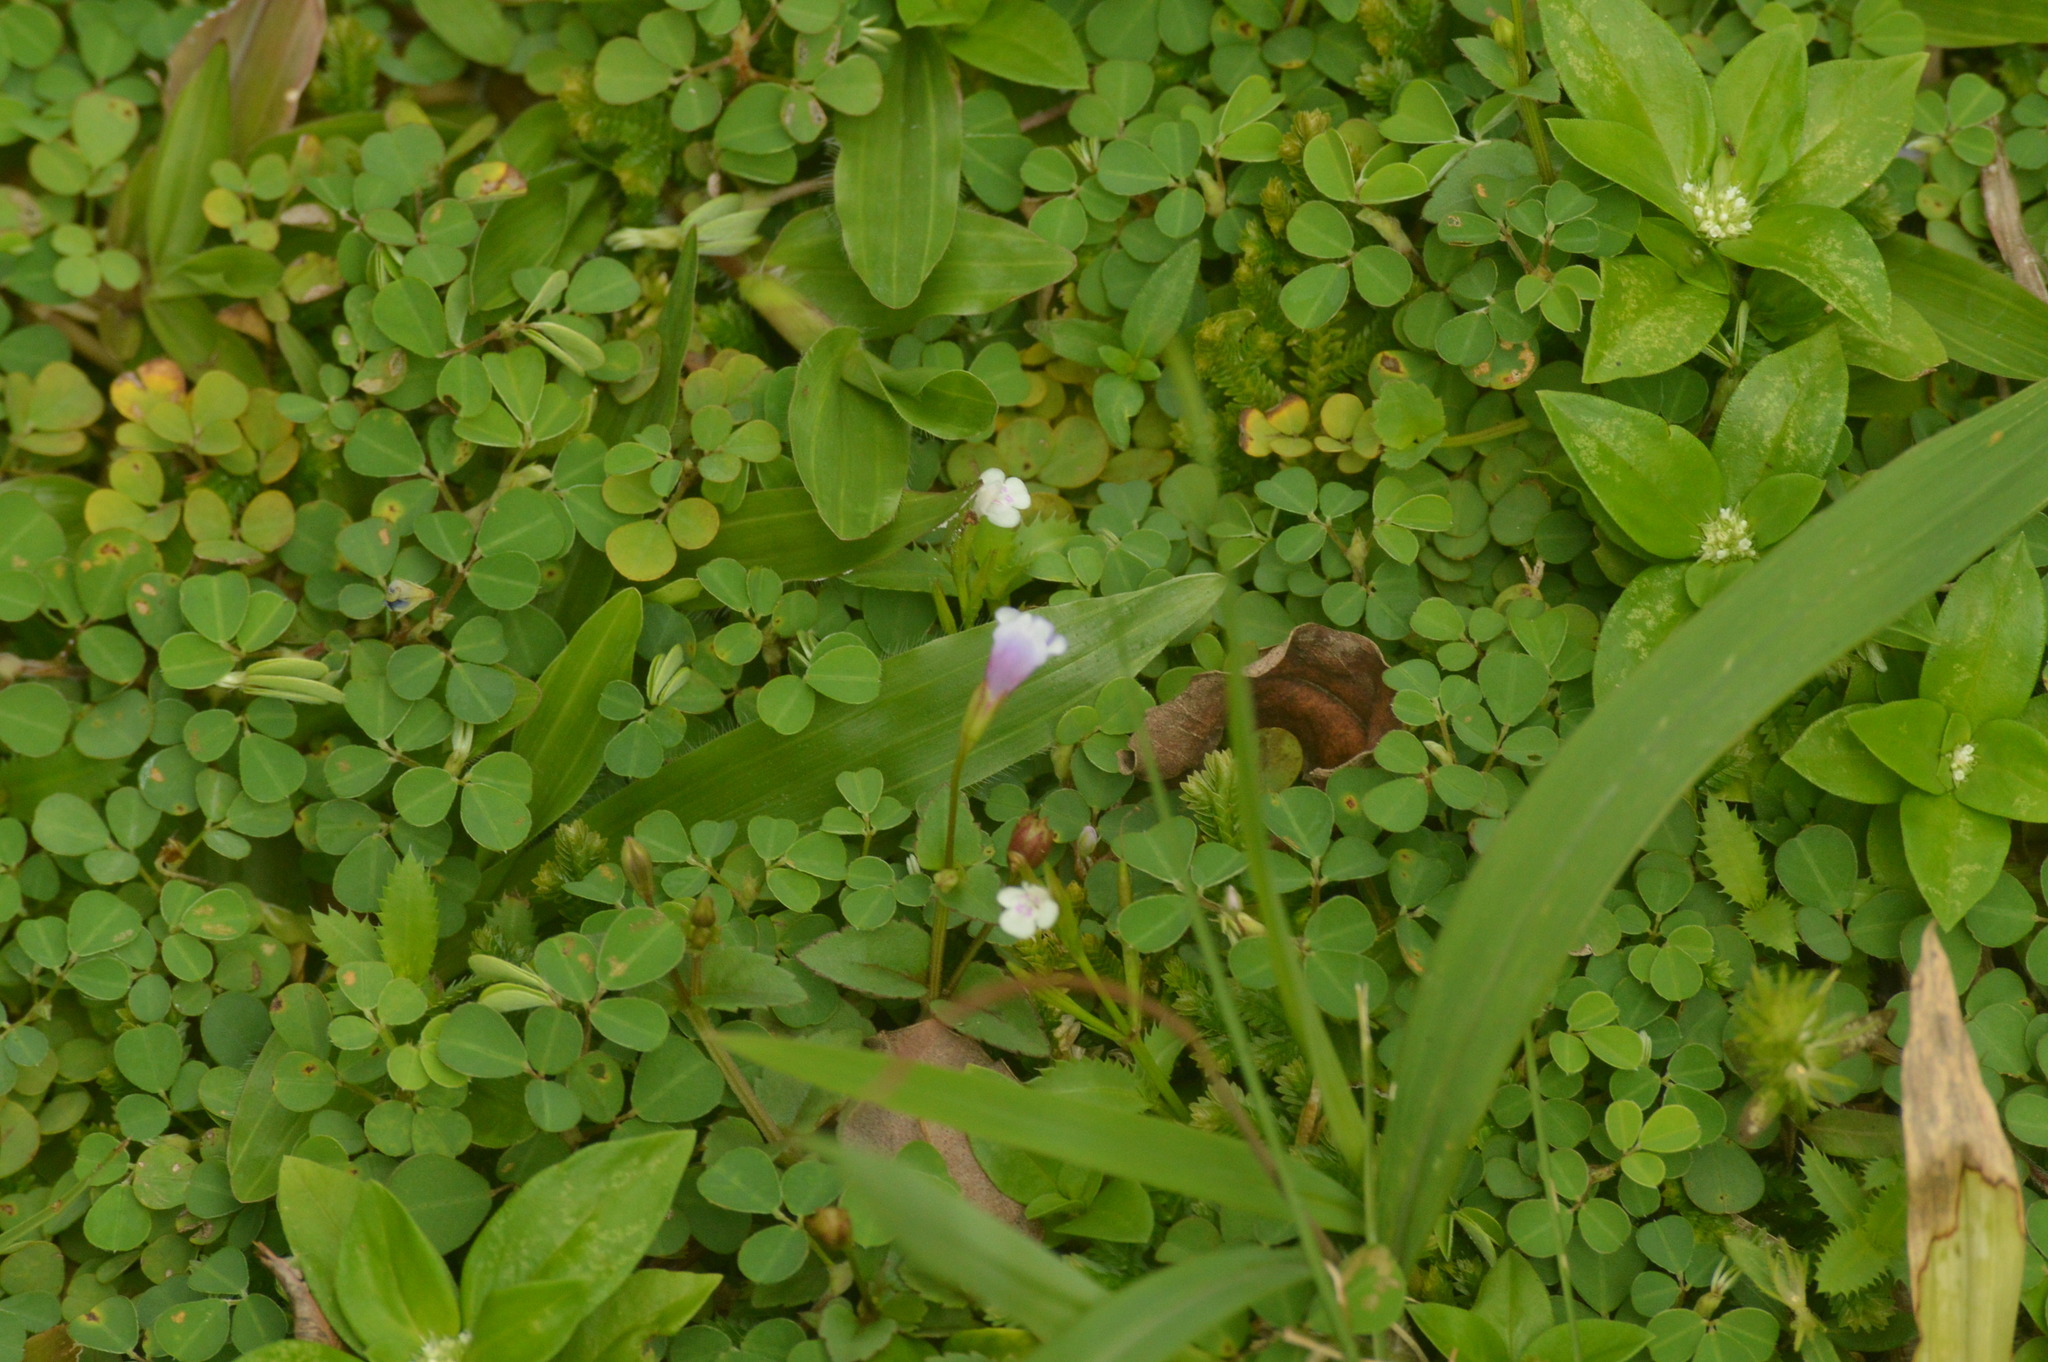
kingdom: Plantae
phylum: Tracheophyta
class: Magnoliopsida
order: Lamiales
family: Linderniaceae
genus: Torenia
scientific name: Torenia crustacea
